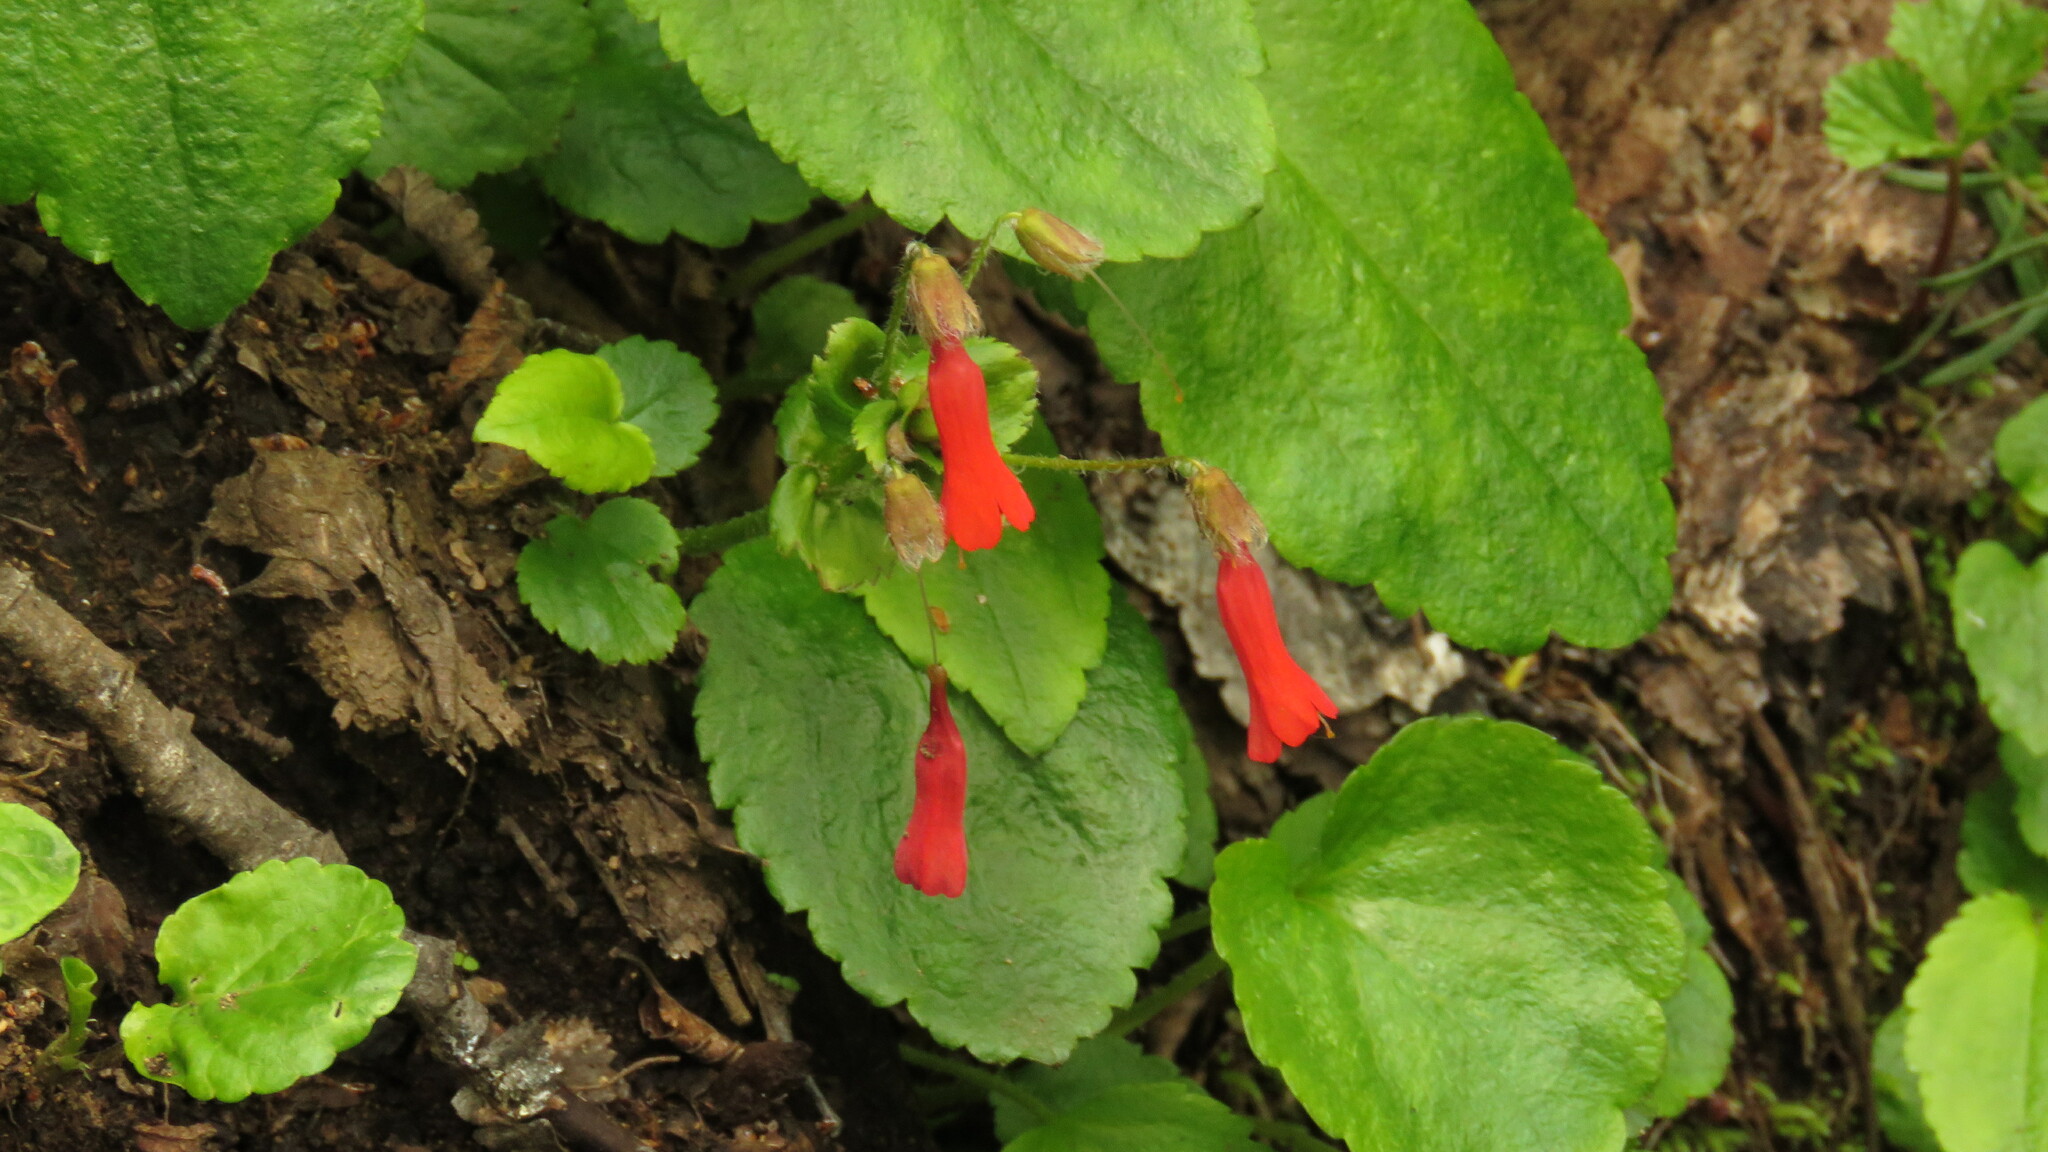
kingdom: Plantae
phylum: Tracheophyta
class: Magnoliopsida
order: Lamiales
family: Plantaginaceae
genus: Ourisia
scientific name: Ourisia ruellioides
